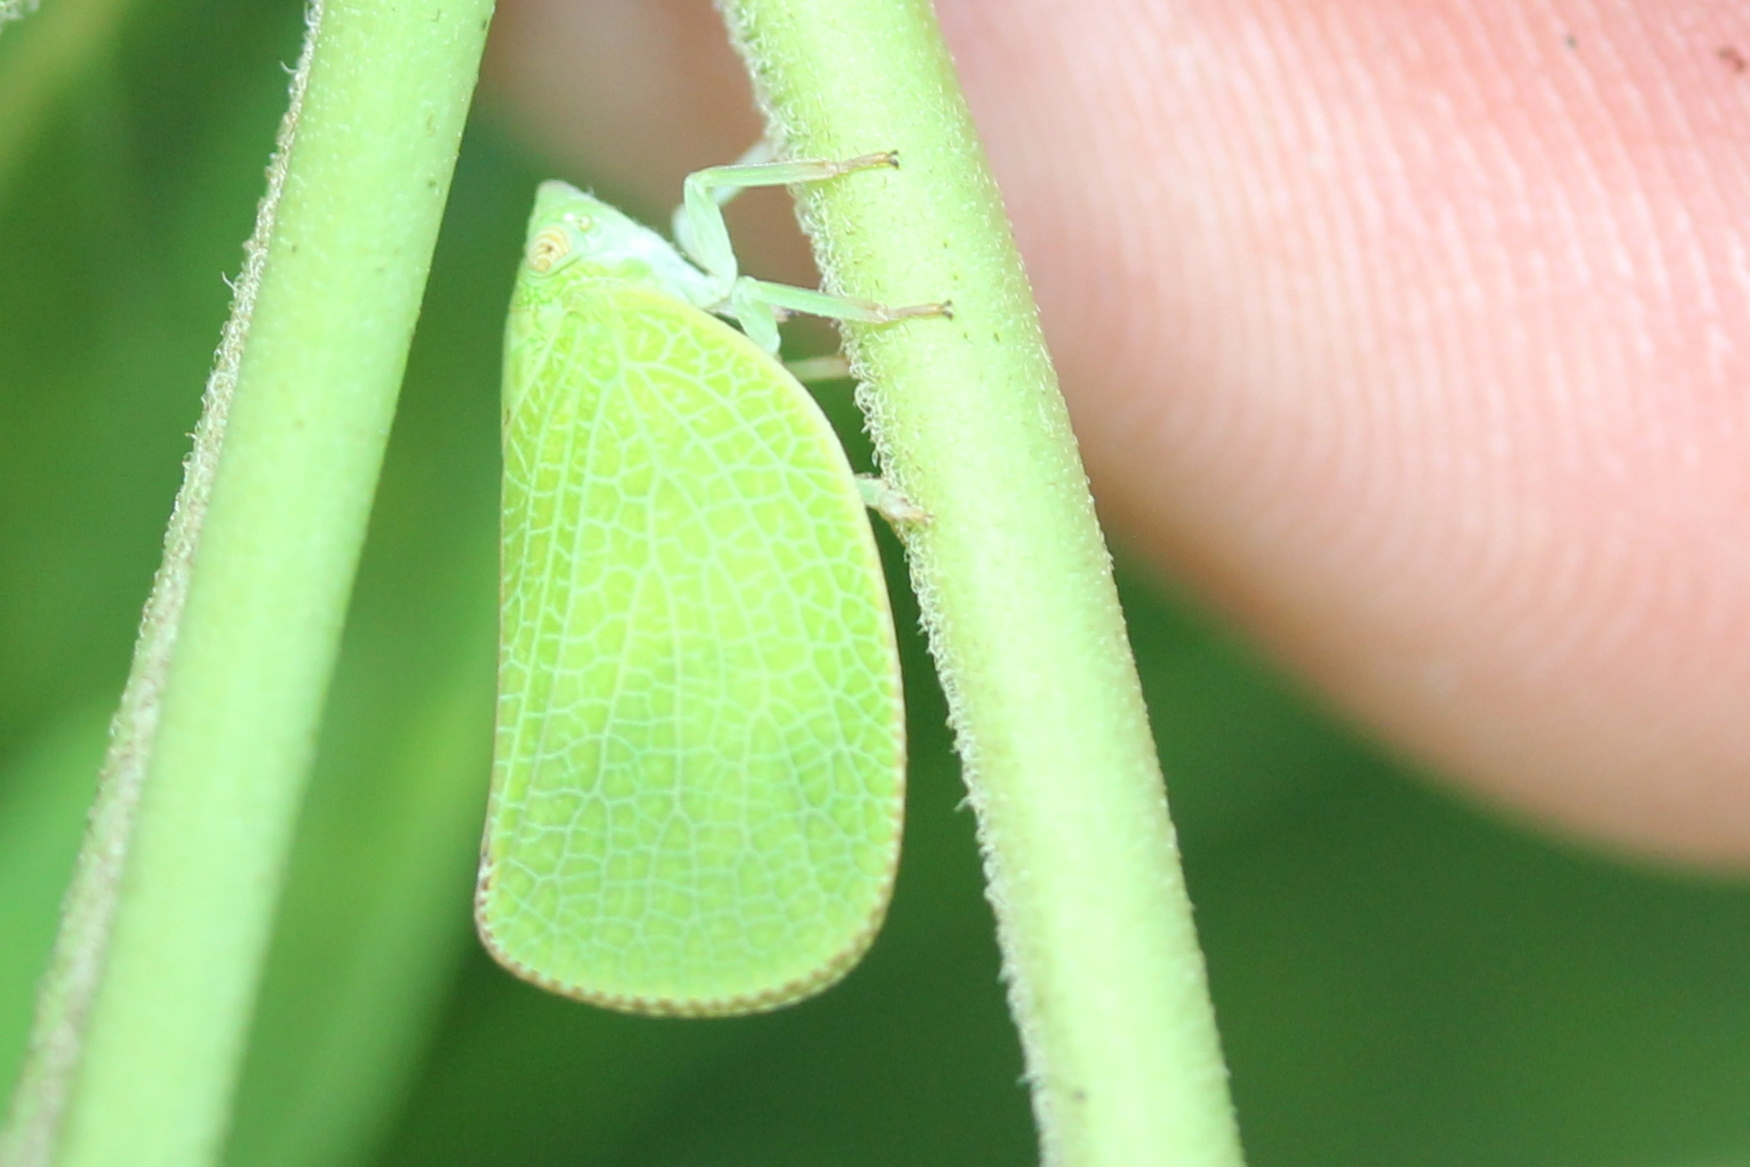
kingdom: Animalia
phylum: Arthropoda
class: Insecta
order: Hemiptera
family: Acanaloniidae
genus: Acanalonia
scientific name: Acanalonia conica
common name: Green cone-headed planthopper
